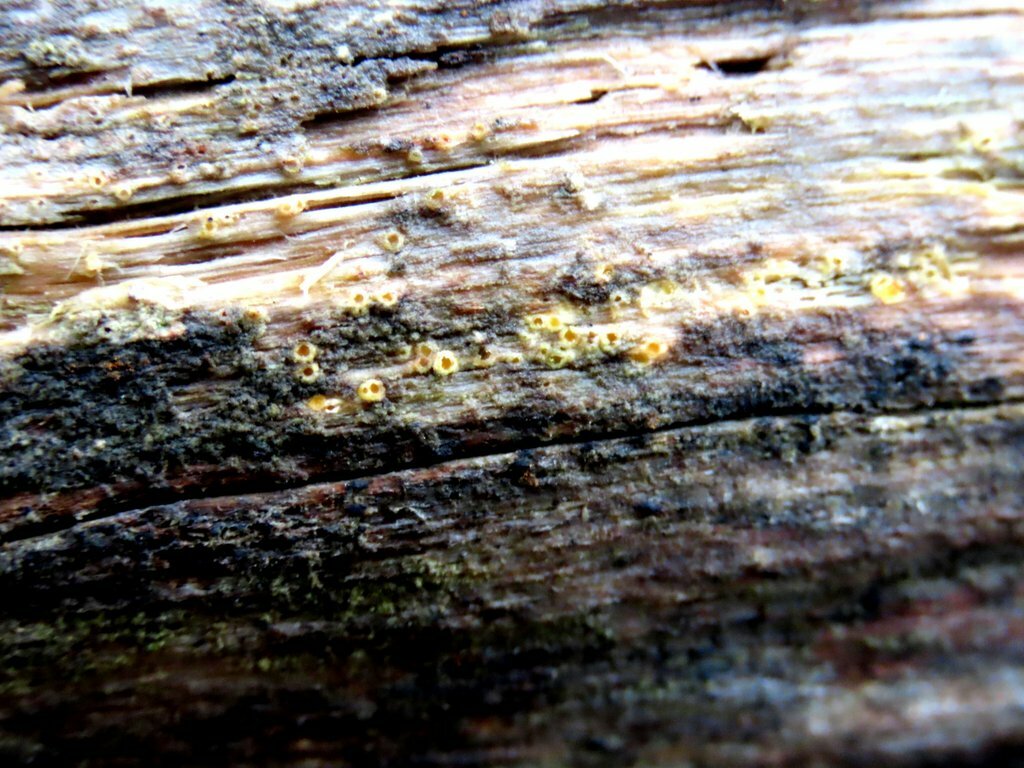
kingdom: Fungi
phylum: Basidiomycota
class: Agaricomycetes
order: Geastrales
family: Geastraceae
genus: Sphaerobolus
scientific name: Sphaerobolus stellatus
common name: Cannon fungus
